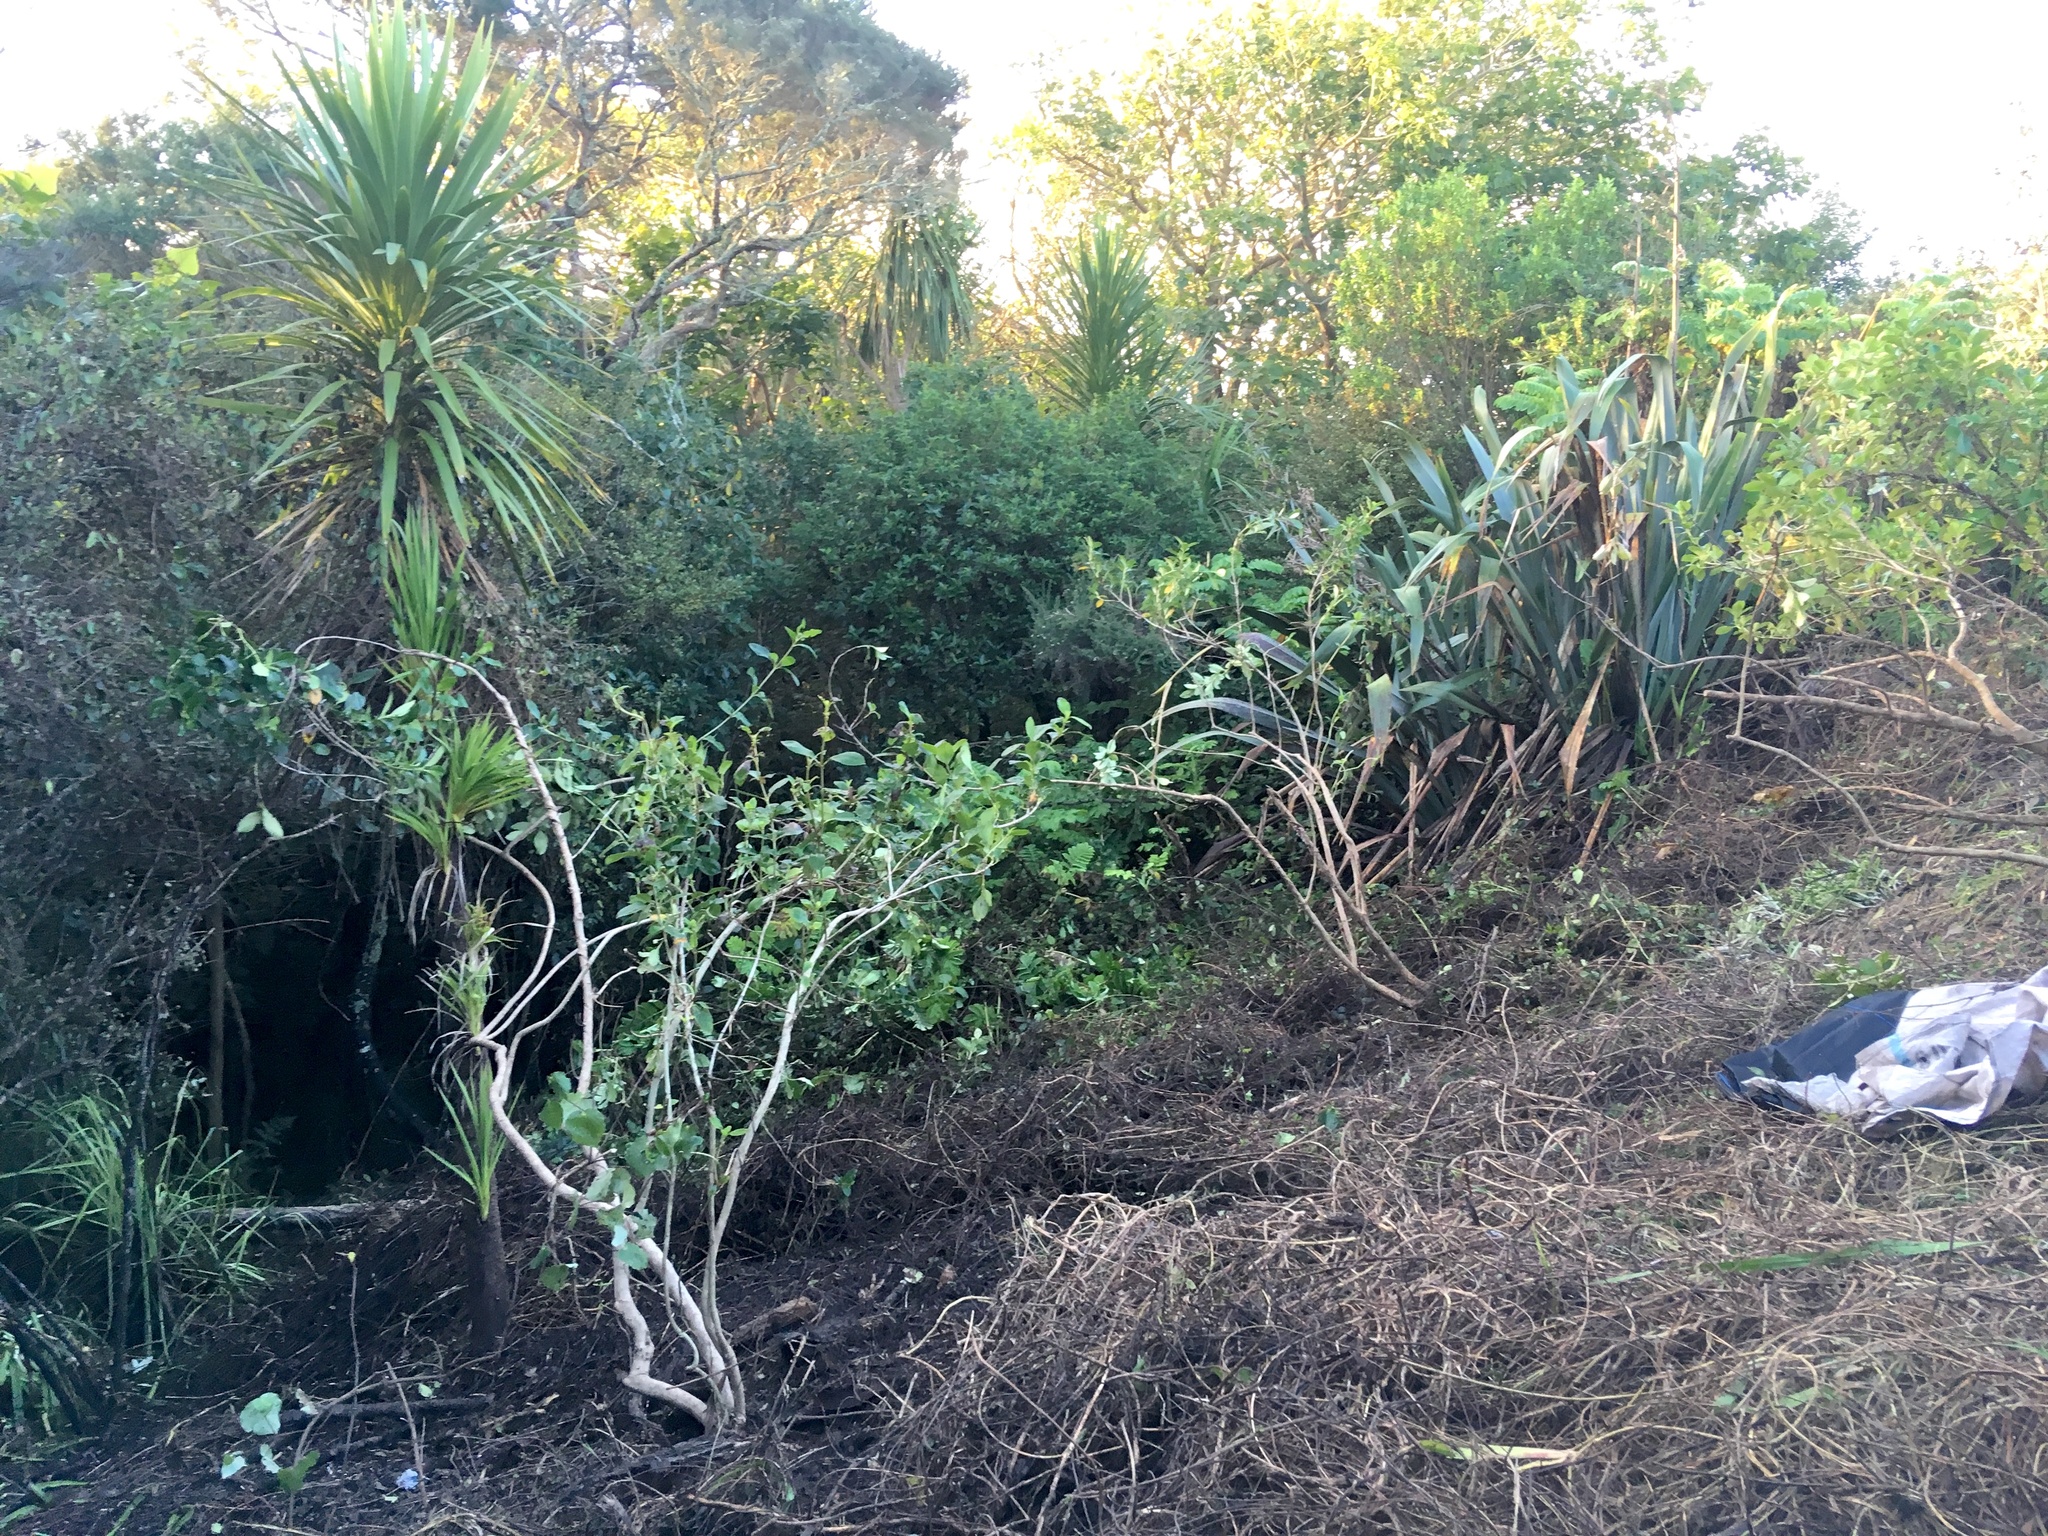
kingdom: Plantae
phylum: Tracheophyta
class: Magnoliopsida
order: Gentianales
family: Rubiaceae
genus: Coprosma
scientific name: Coprosma robusta
